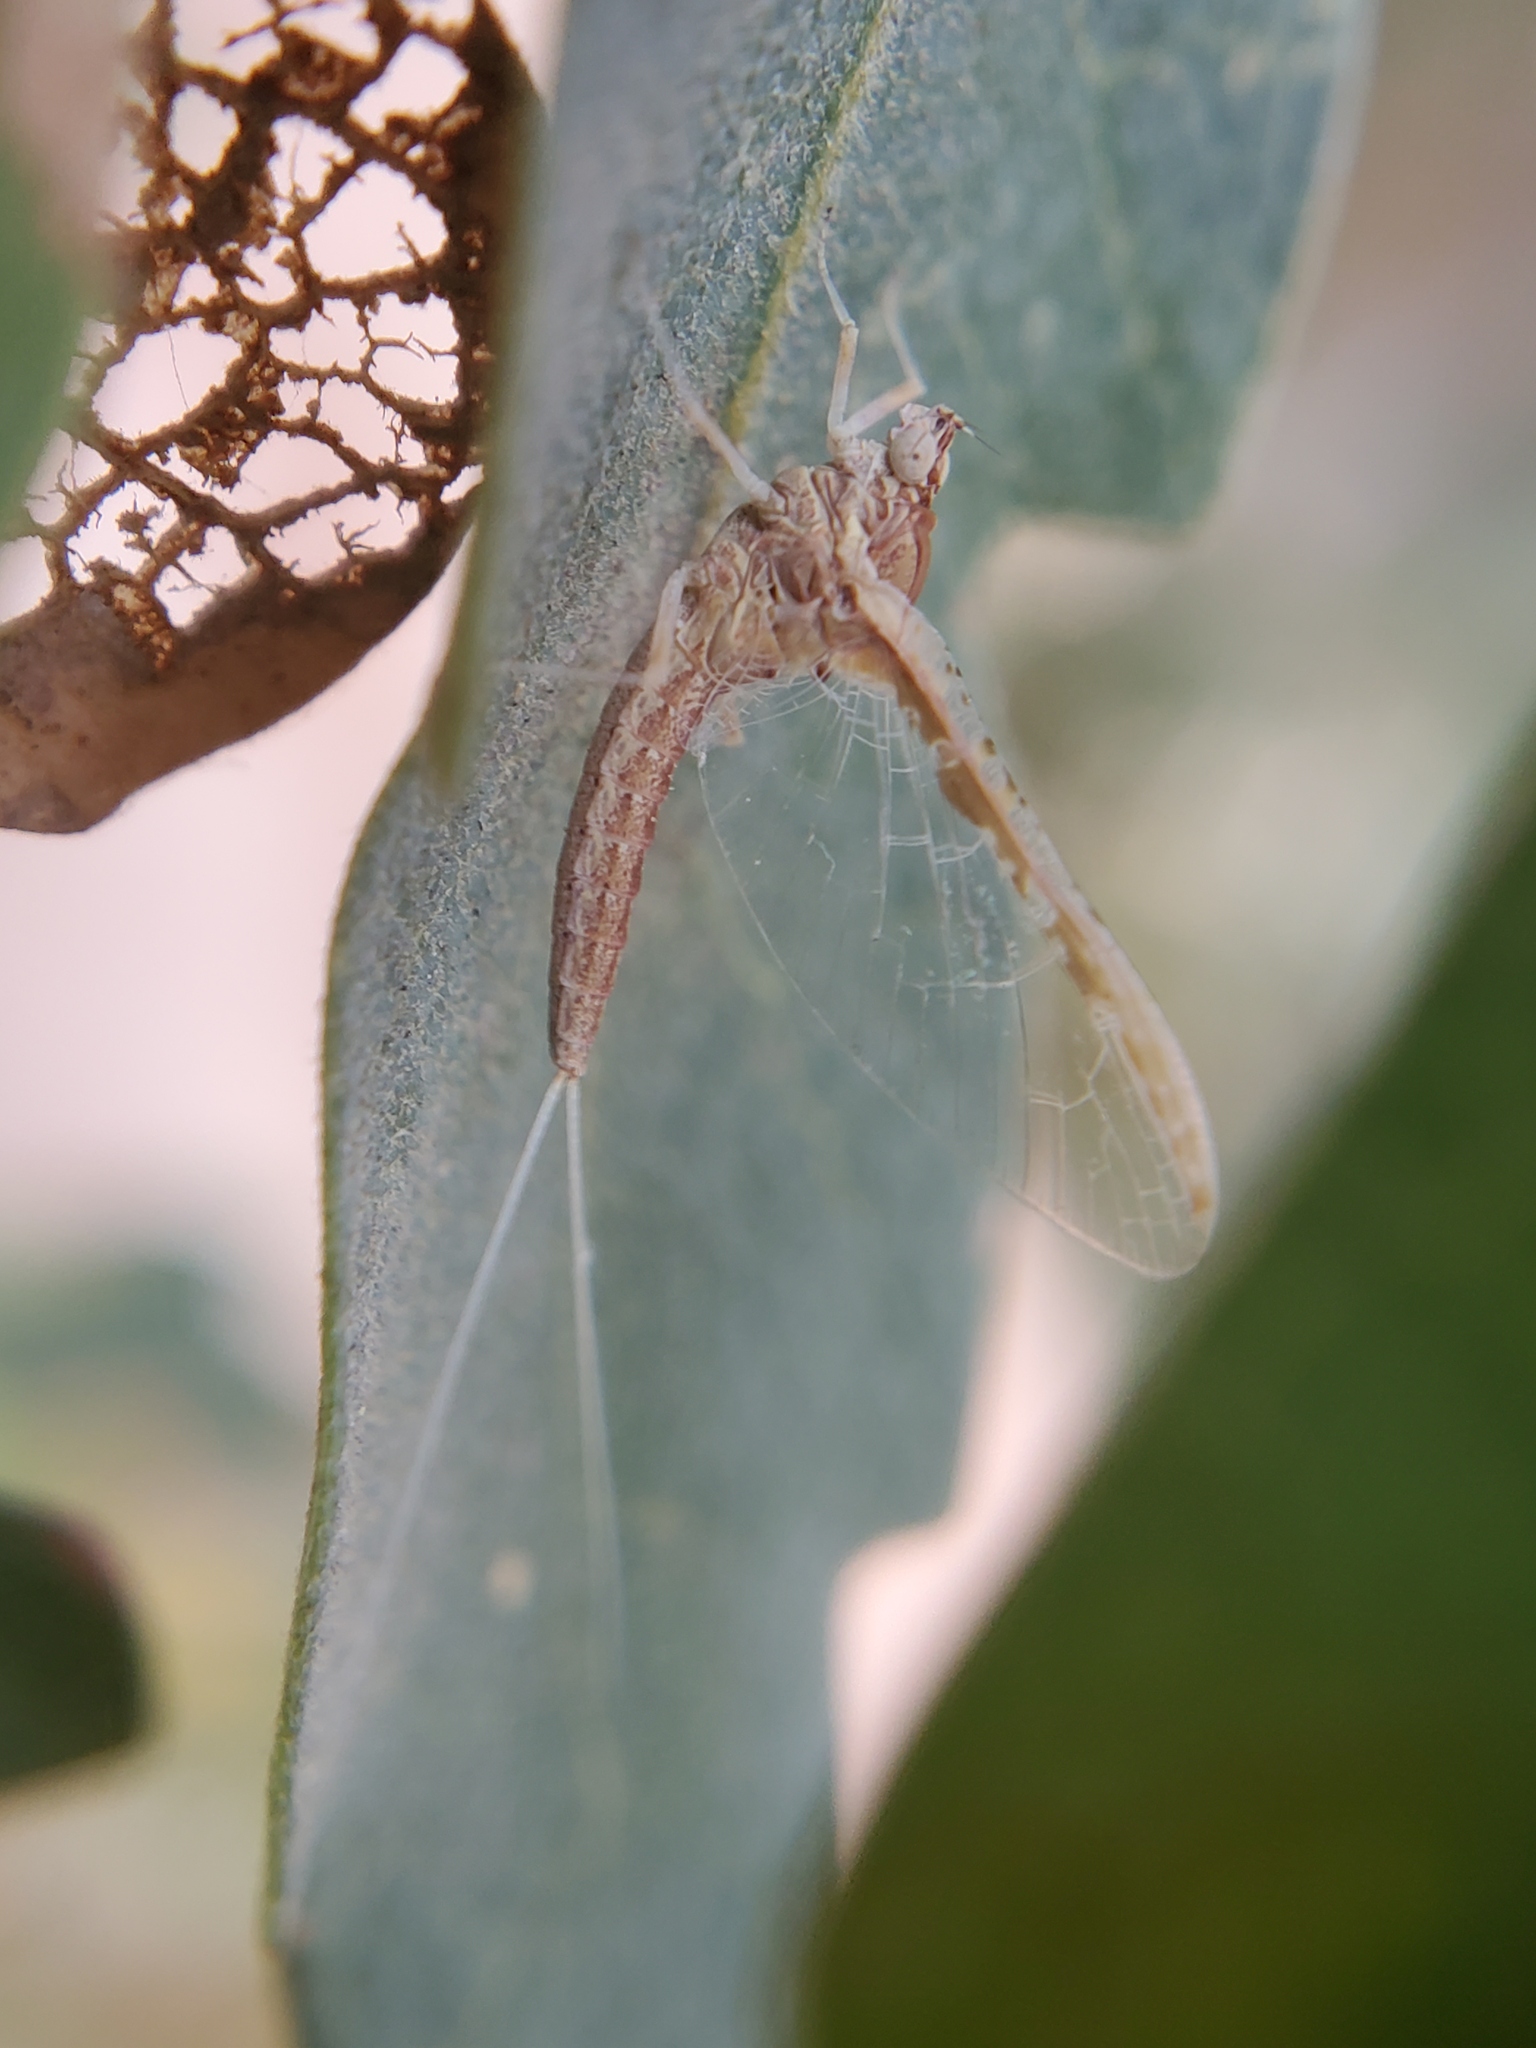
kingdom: Animalia
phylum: Arthropoda
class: Insecta
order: Ephemeroptera
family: Baetidae
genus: Callibaetis
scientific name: Callibaetis pictus
